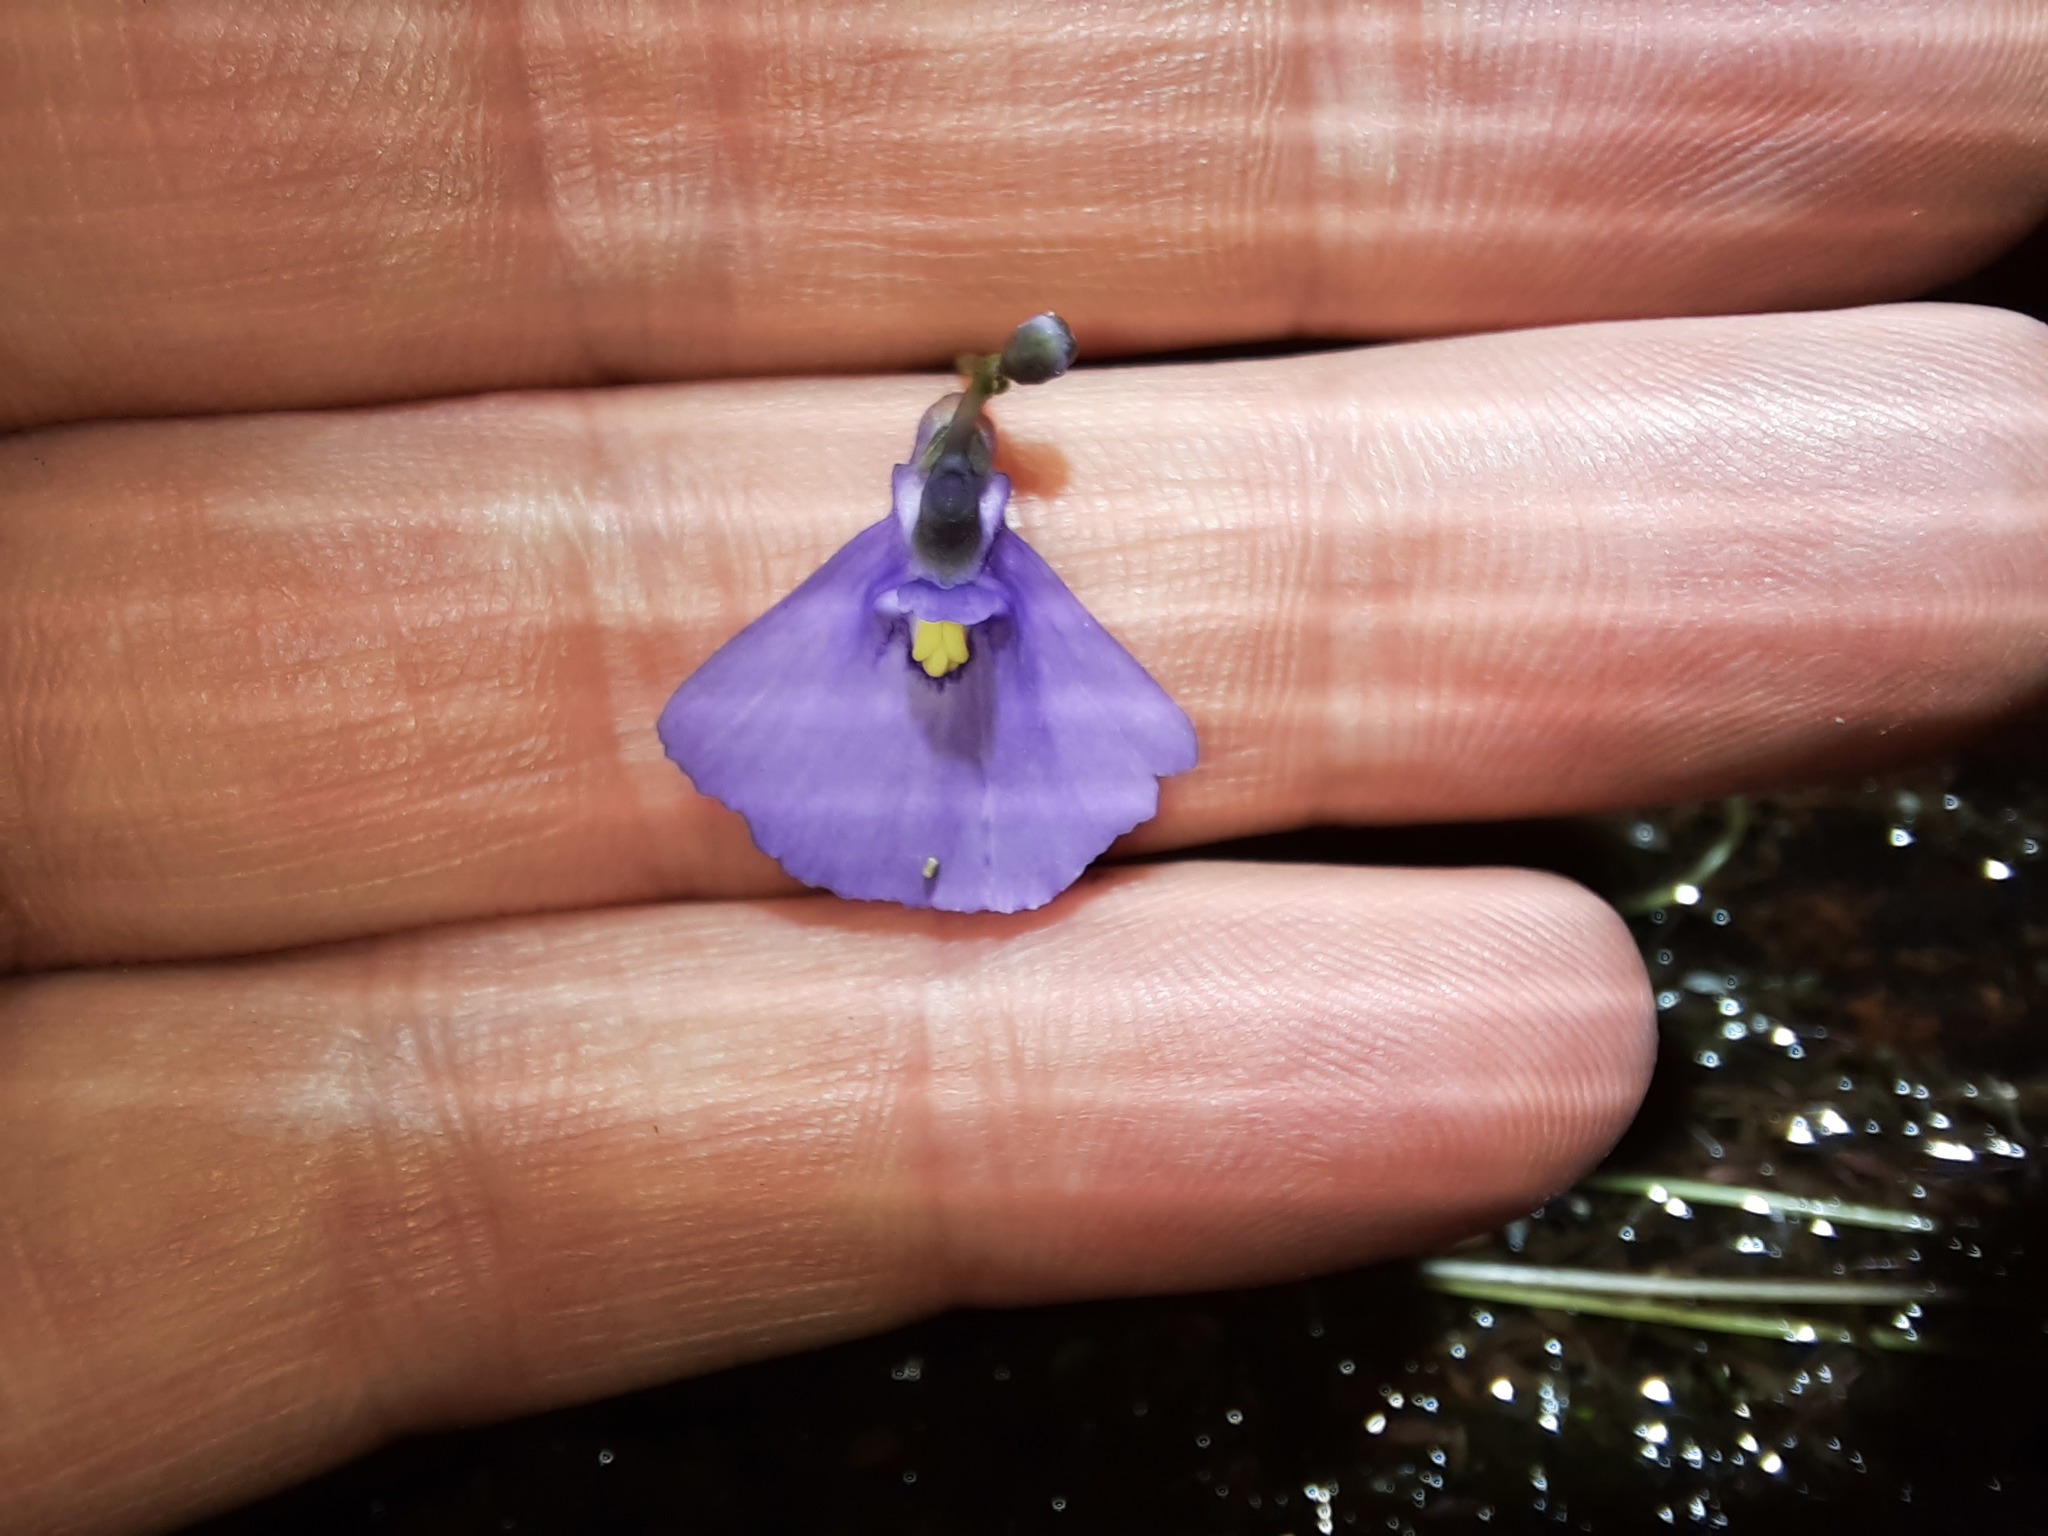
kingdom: Plantae
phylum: Tracheophyta
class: Magnoliopsida
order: Lamiales
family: Lentibulariaceae
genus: Utricularia
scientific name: Utricularia dichotoma
